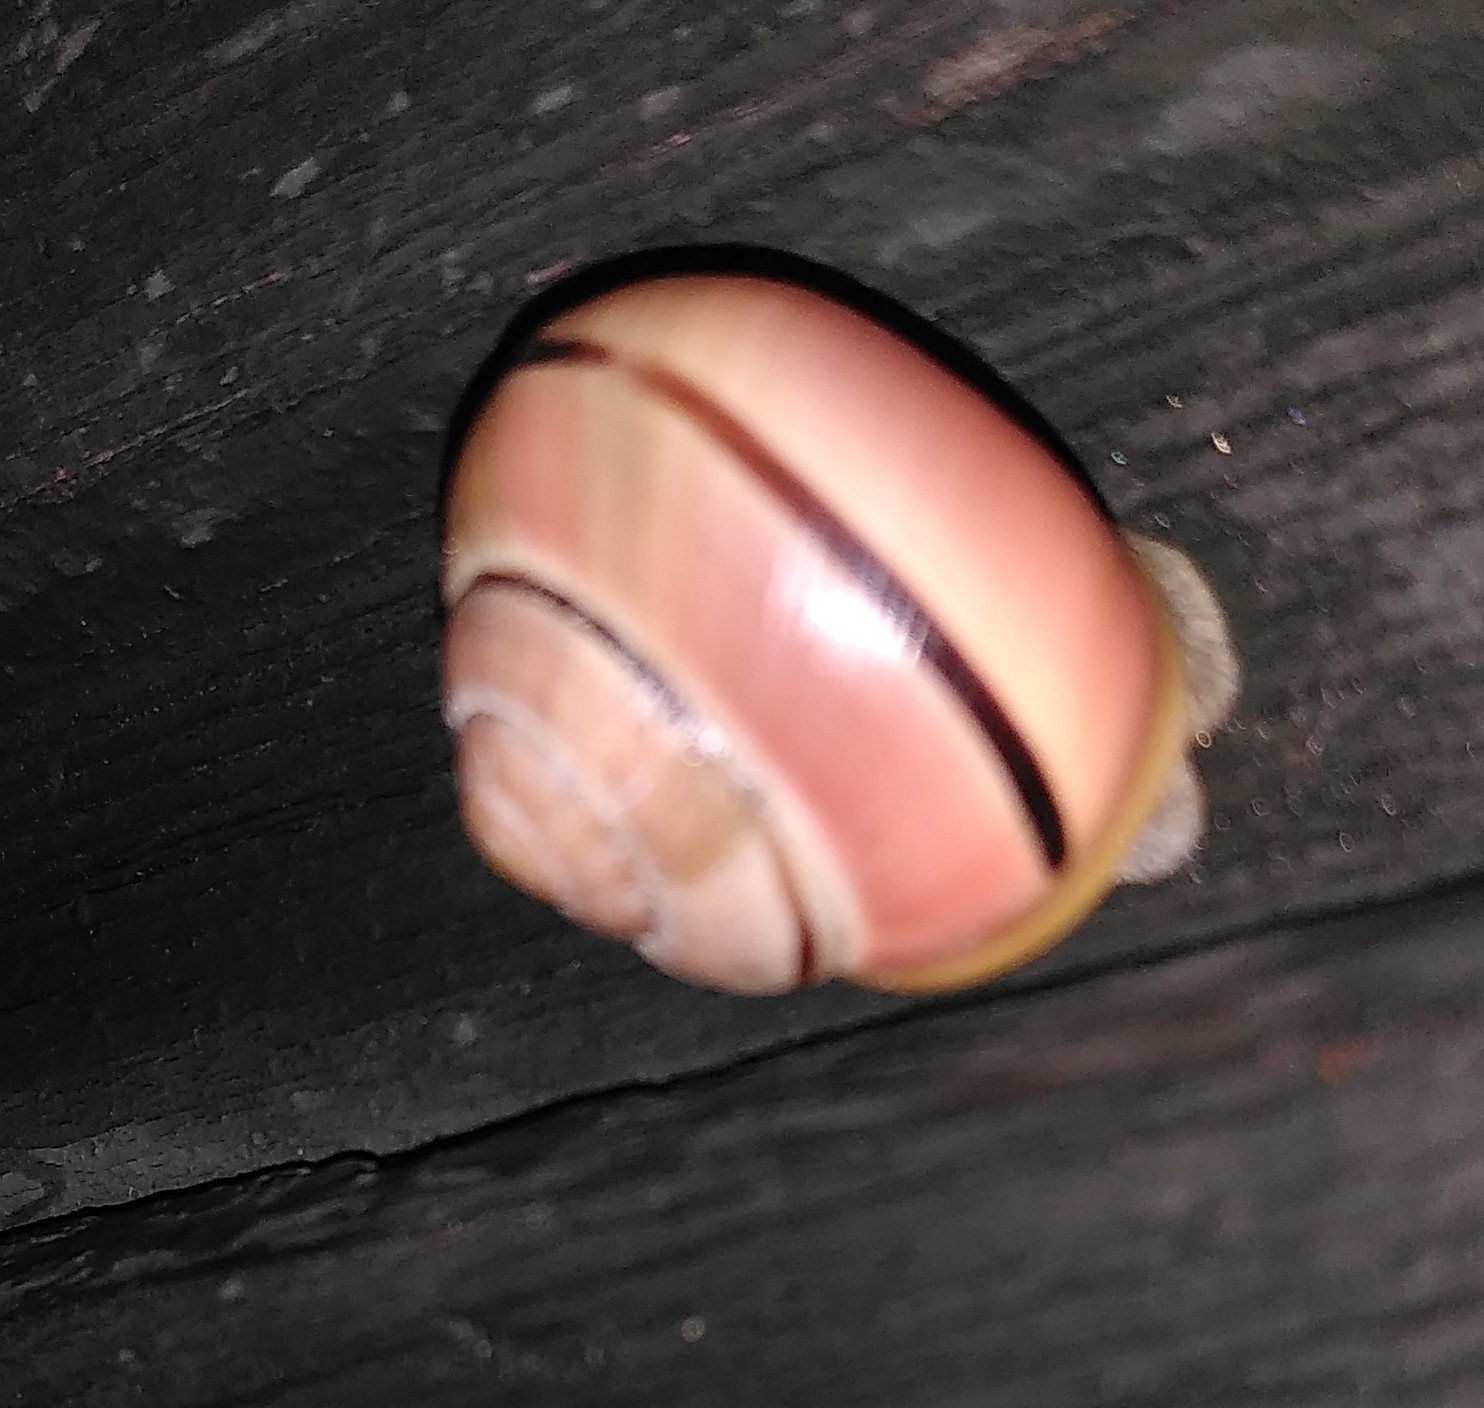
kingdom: Animalia
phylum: Mollusca
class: Gastropoda
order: Stylommatophora
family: Helicidae
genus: Cepaea
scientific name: Cepaea
